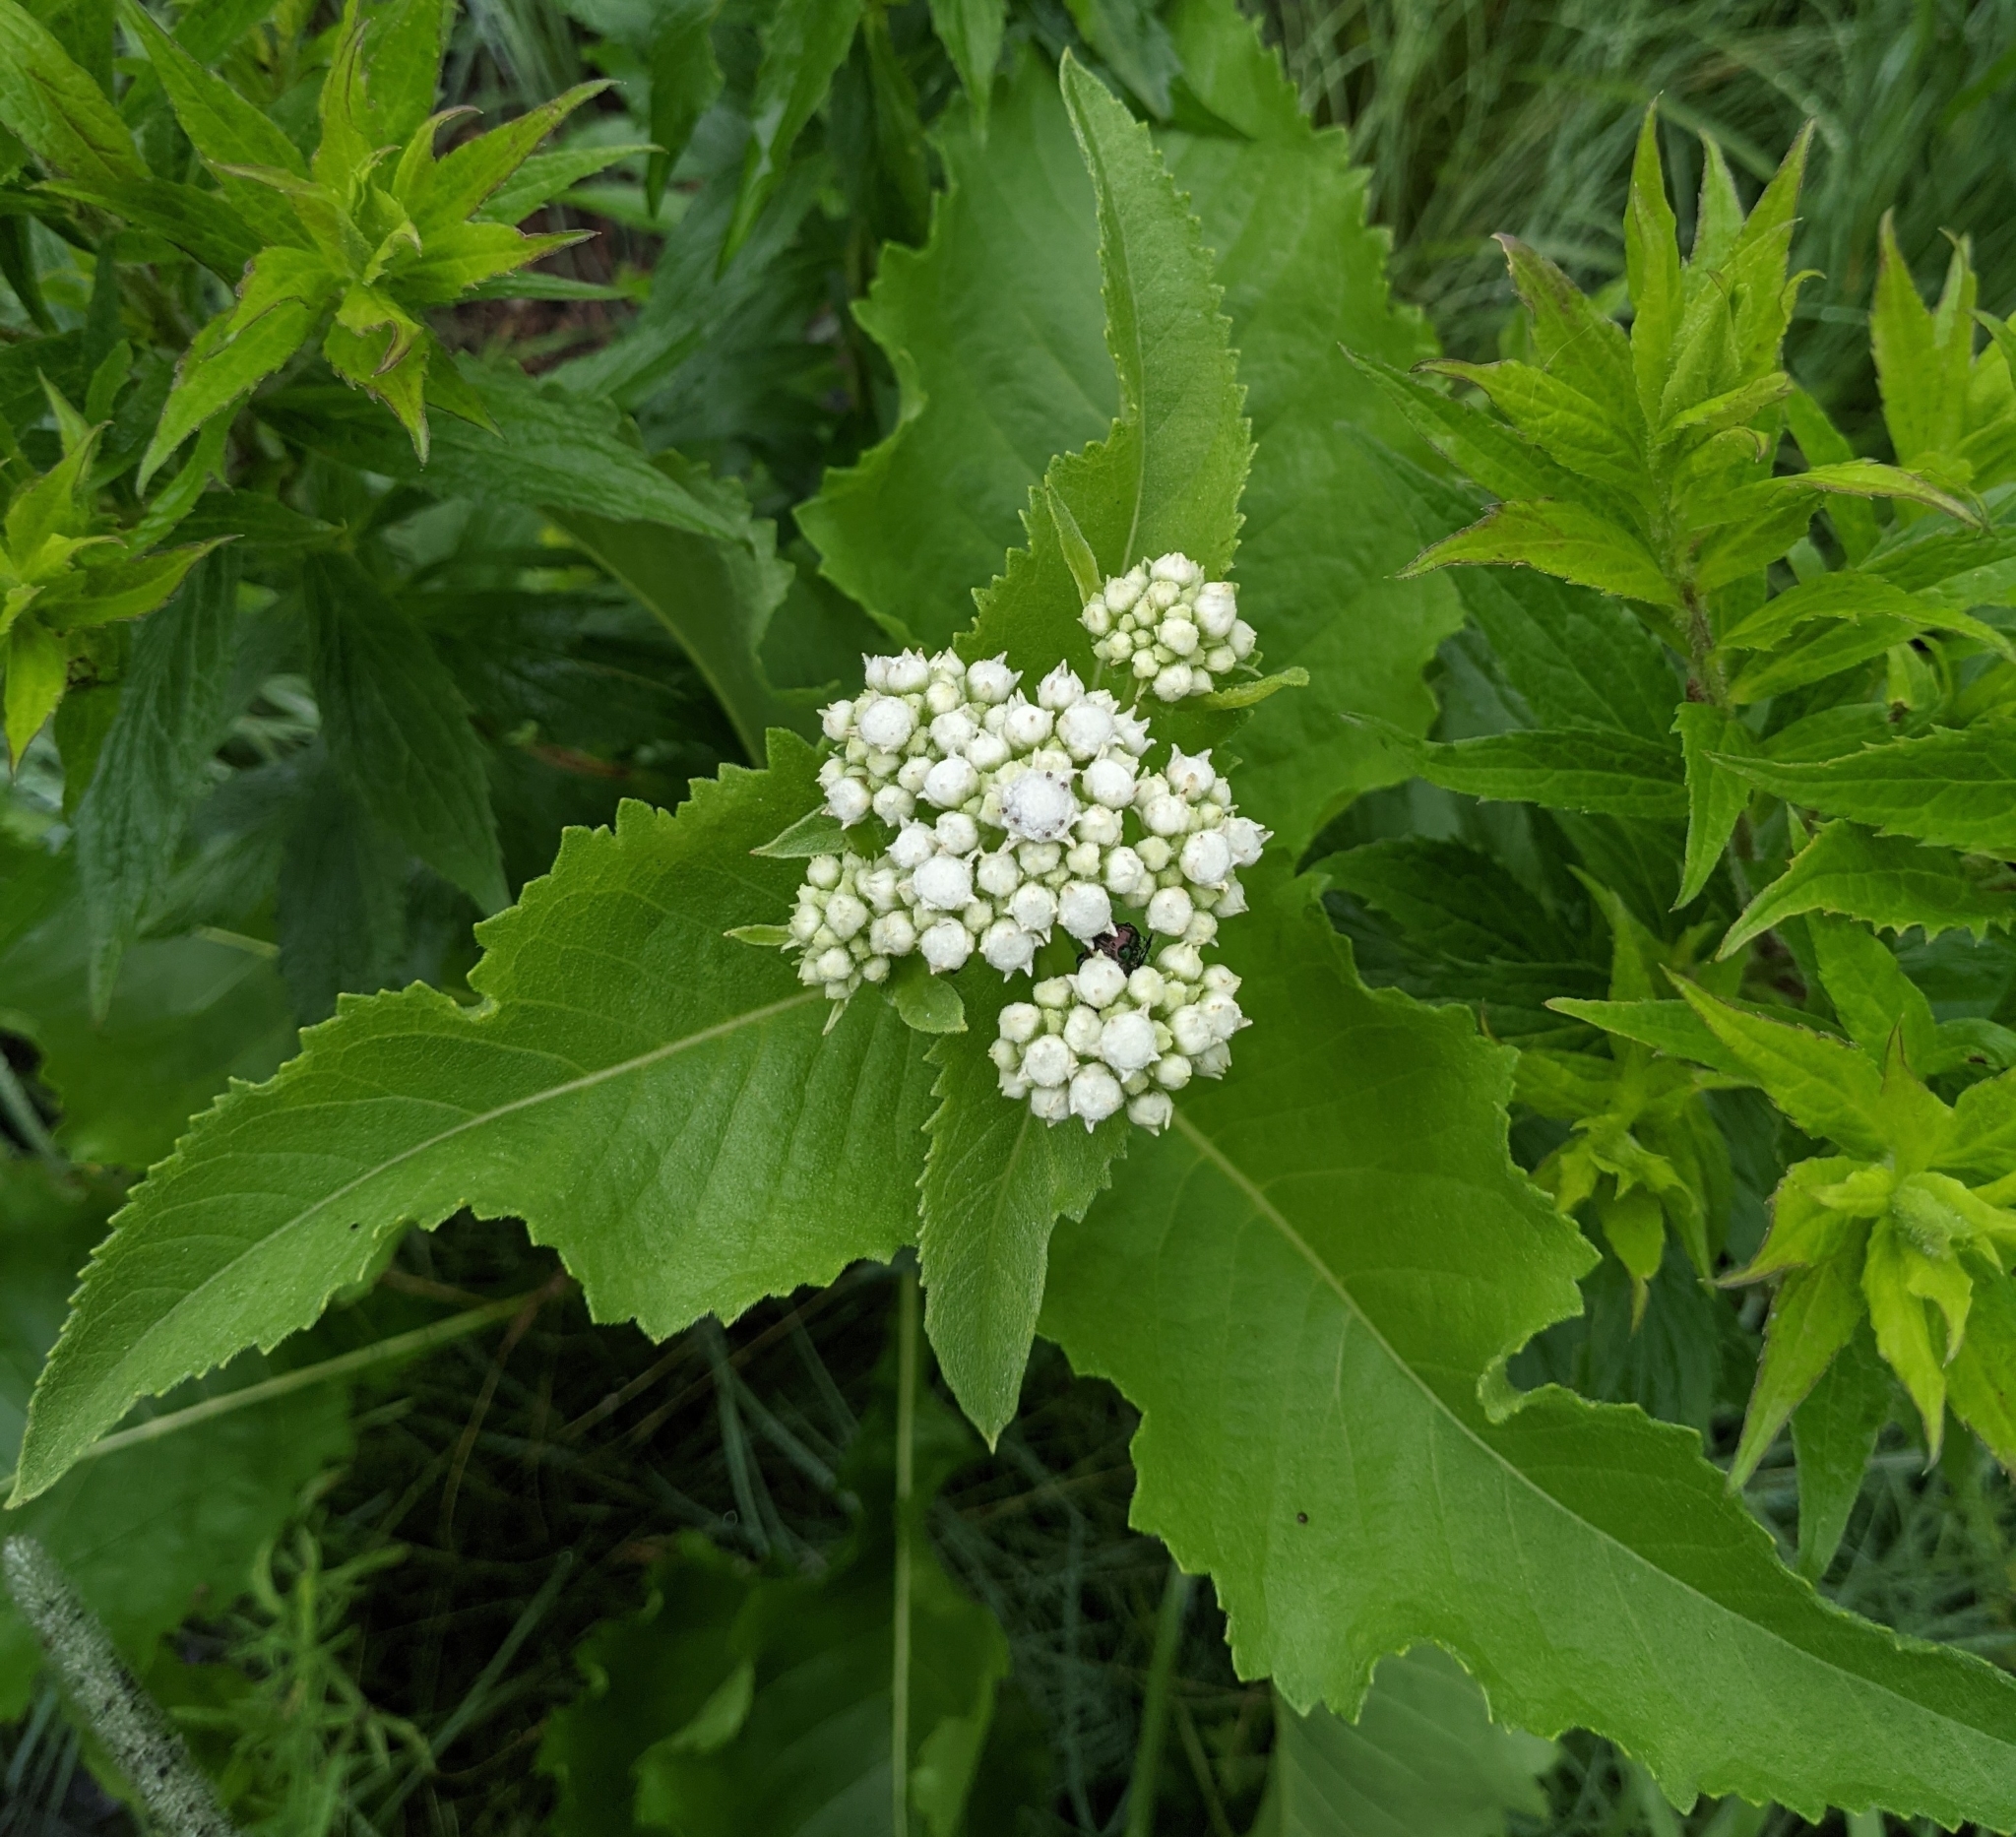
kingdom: Plantae
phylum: Tracheophyta
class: Magnoliopsida
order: Asterales
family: Asteraceae
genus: Parthenium
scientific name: Parthenium integrifolium
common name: American feverfew
